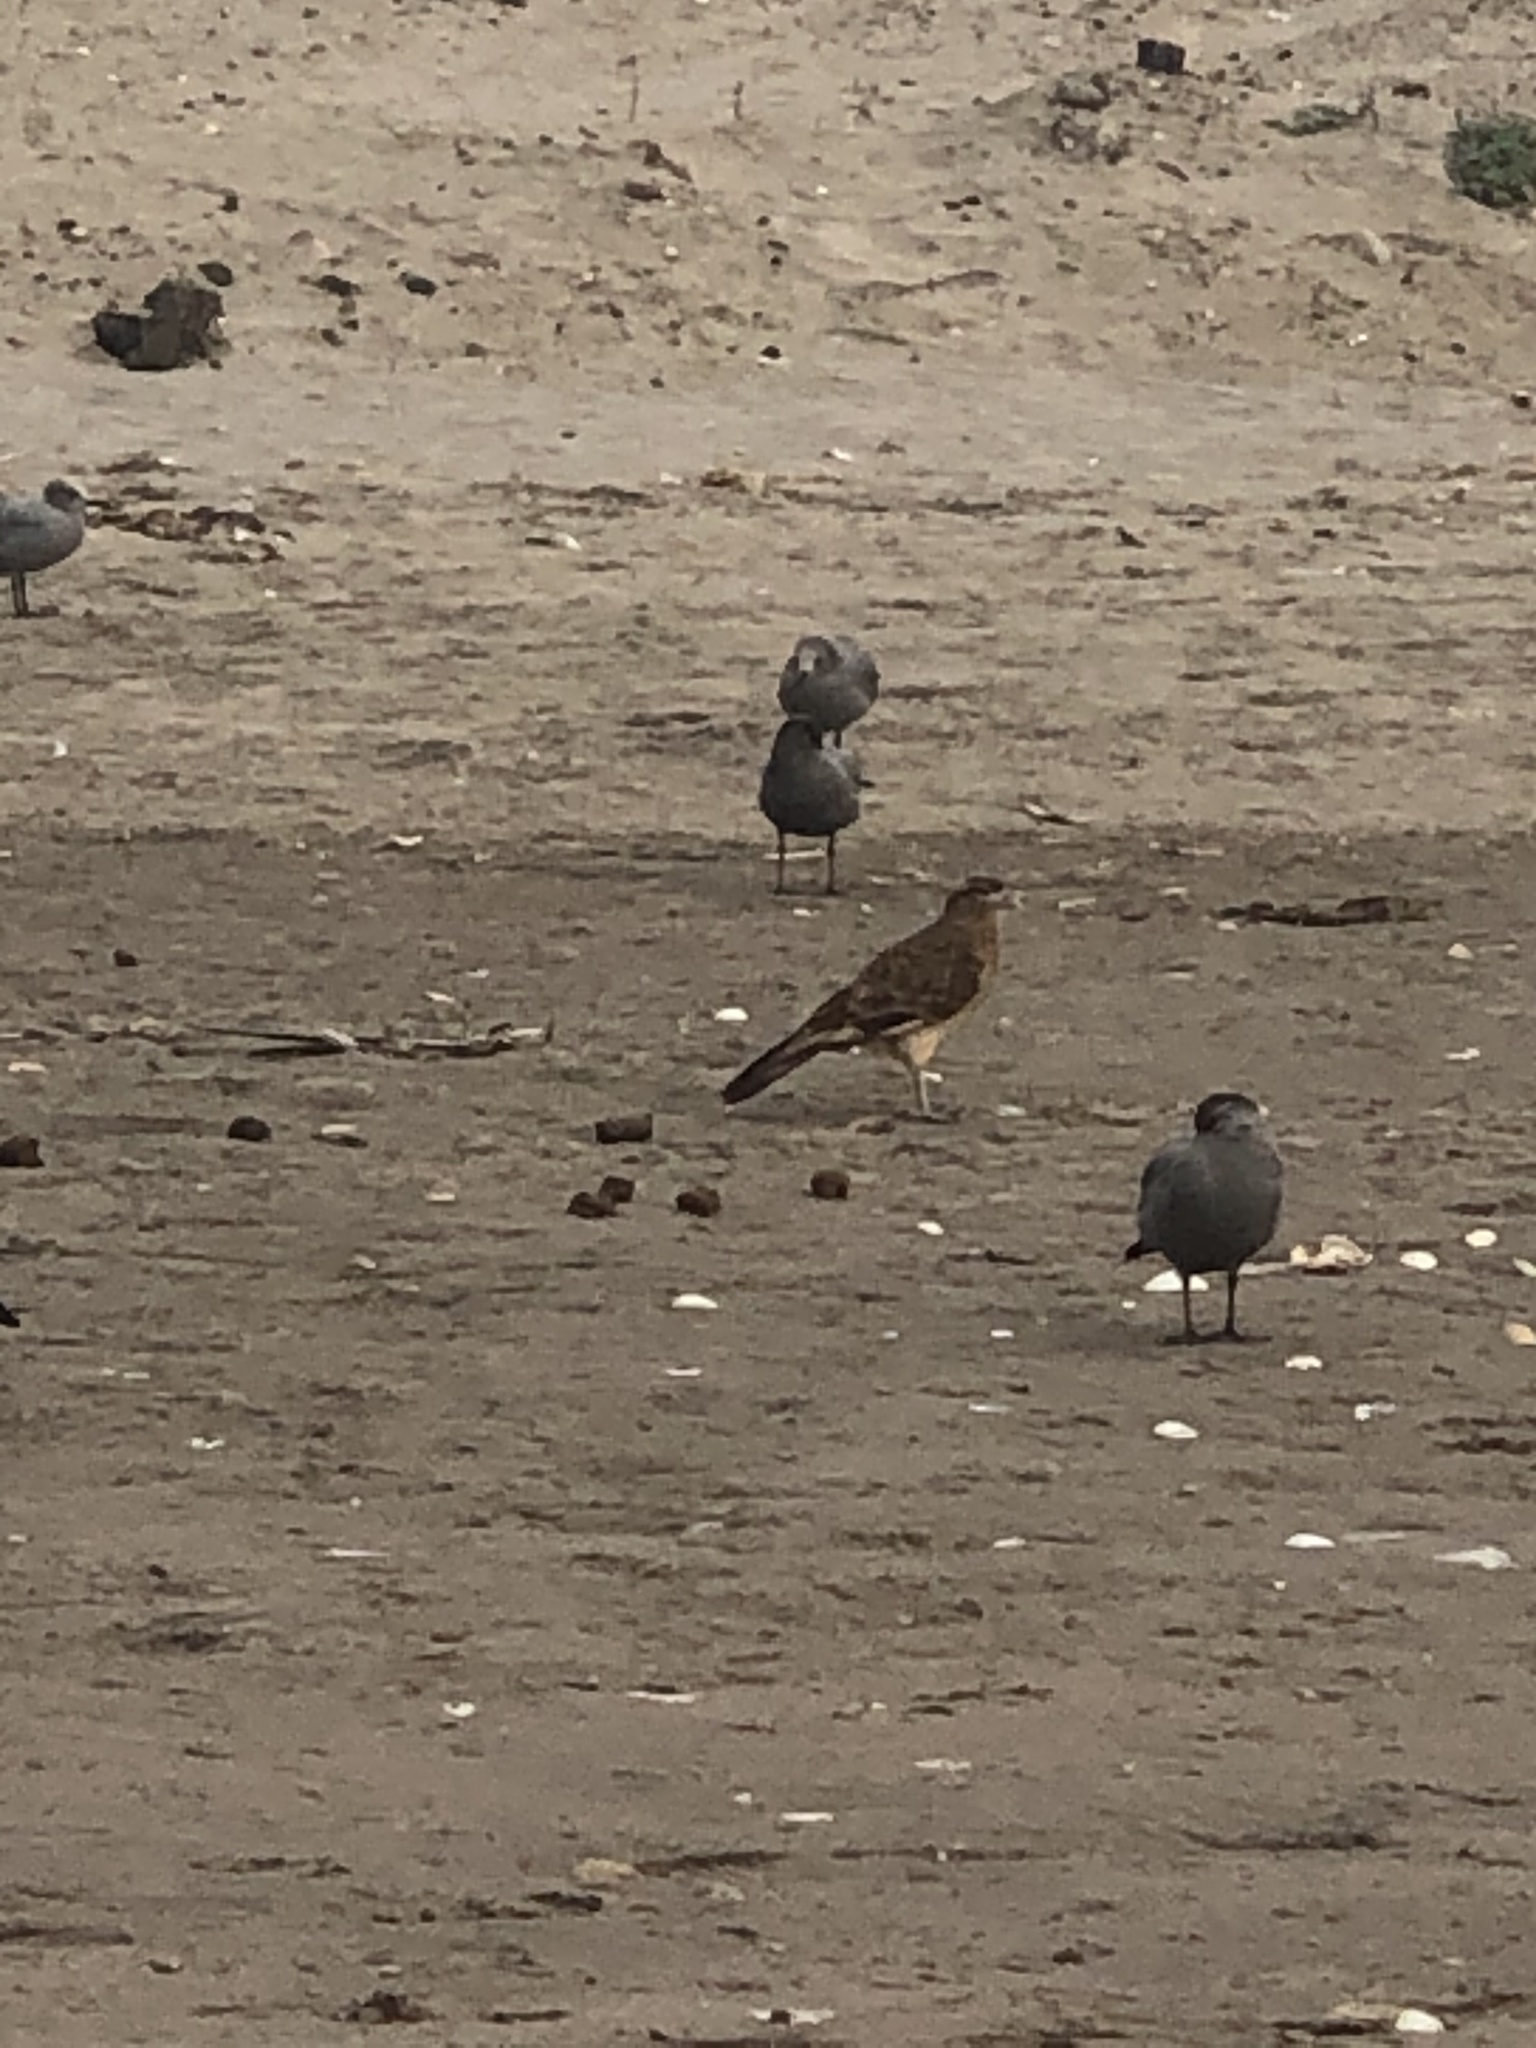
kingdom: Animalia
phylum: Chordata
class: Aves
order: Falconiformes
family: Falconidae
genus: Daptrius
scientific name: Daptrius
